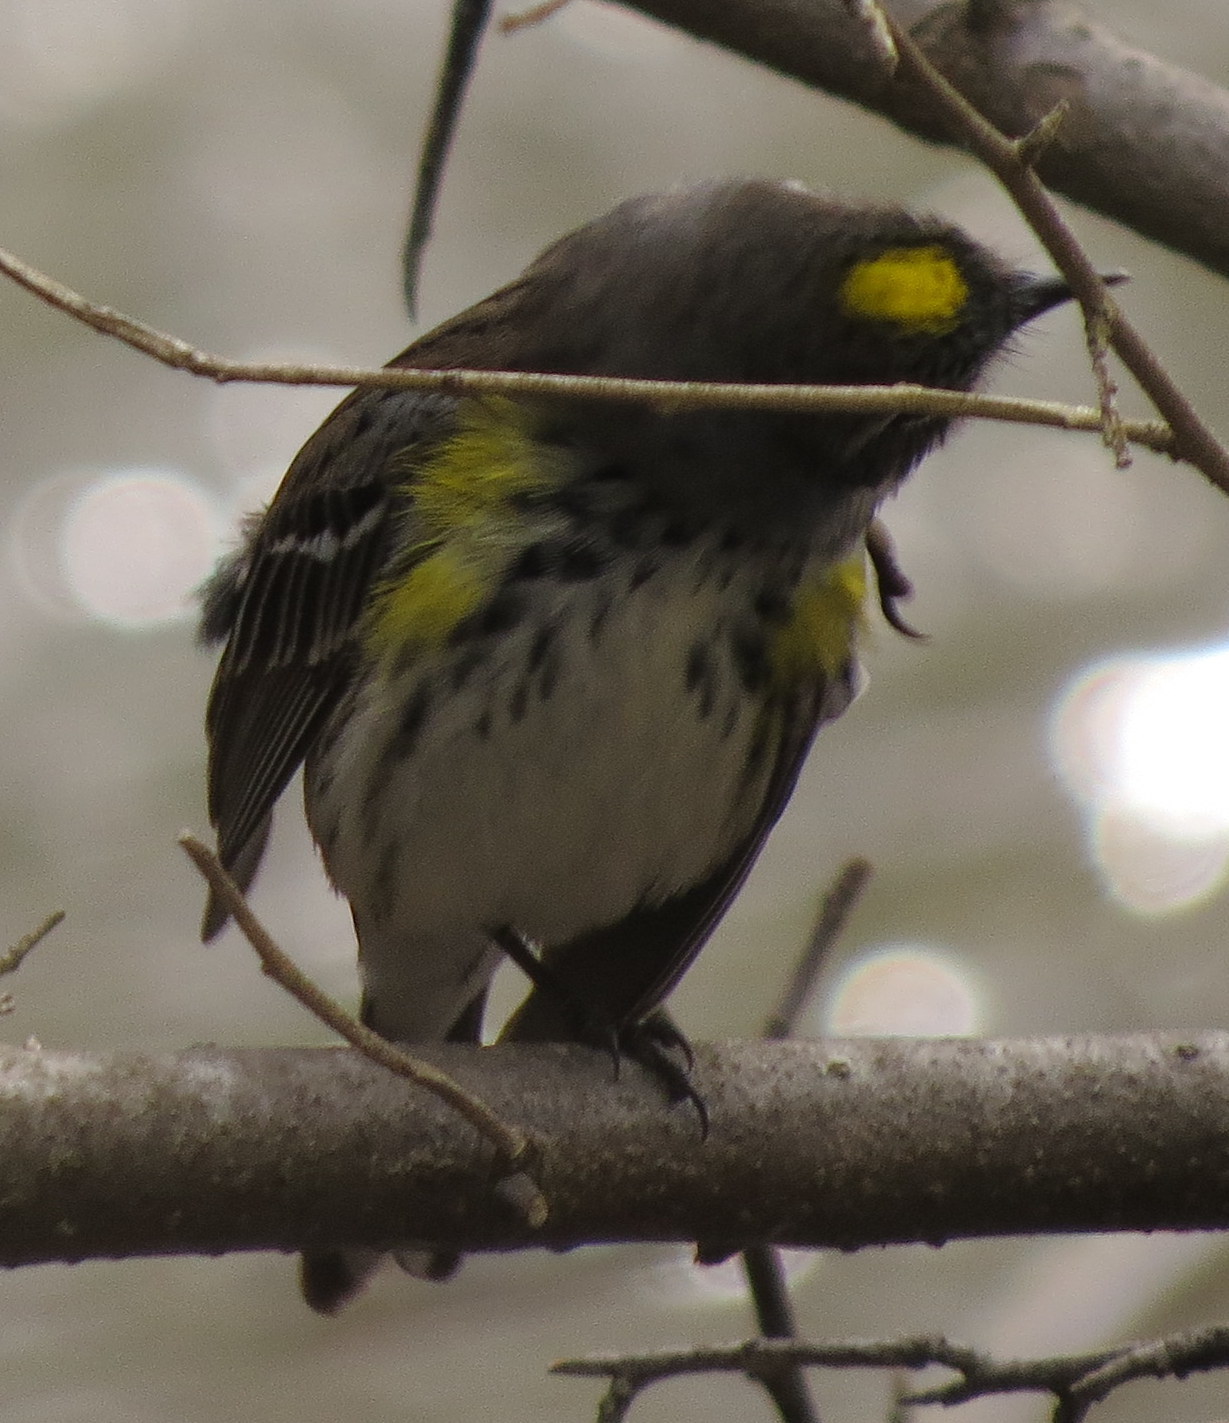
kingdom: Animalia
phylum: Chordata
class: Aves
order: Passeriformes
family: Parulidae
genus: Setophaga
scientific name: Setophaga coronata
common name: Myrtle warbler
